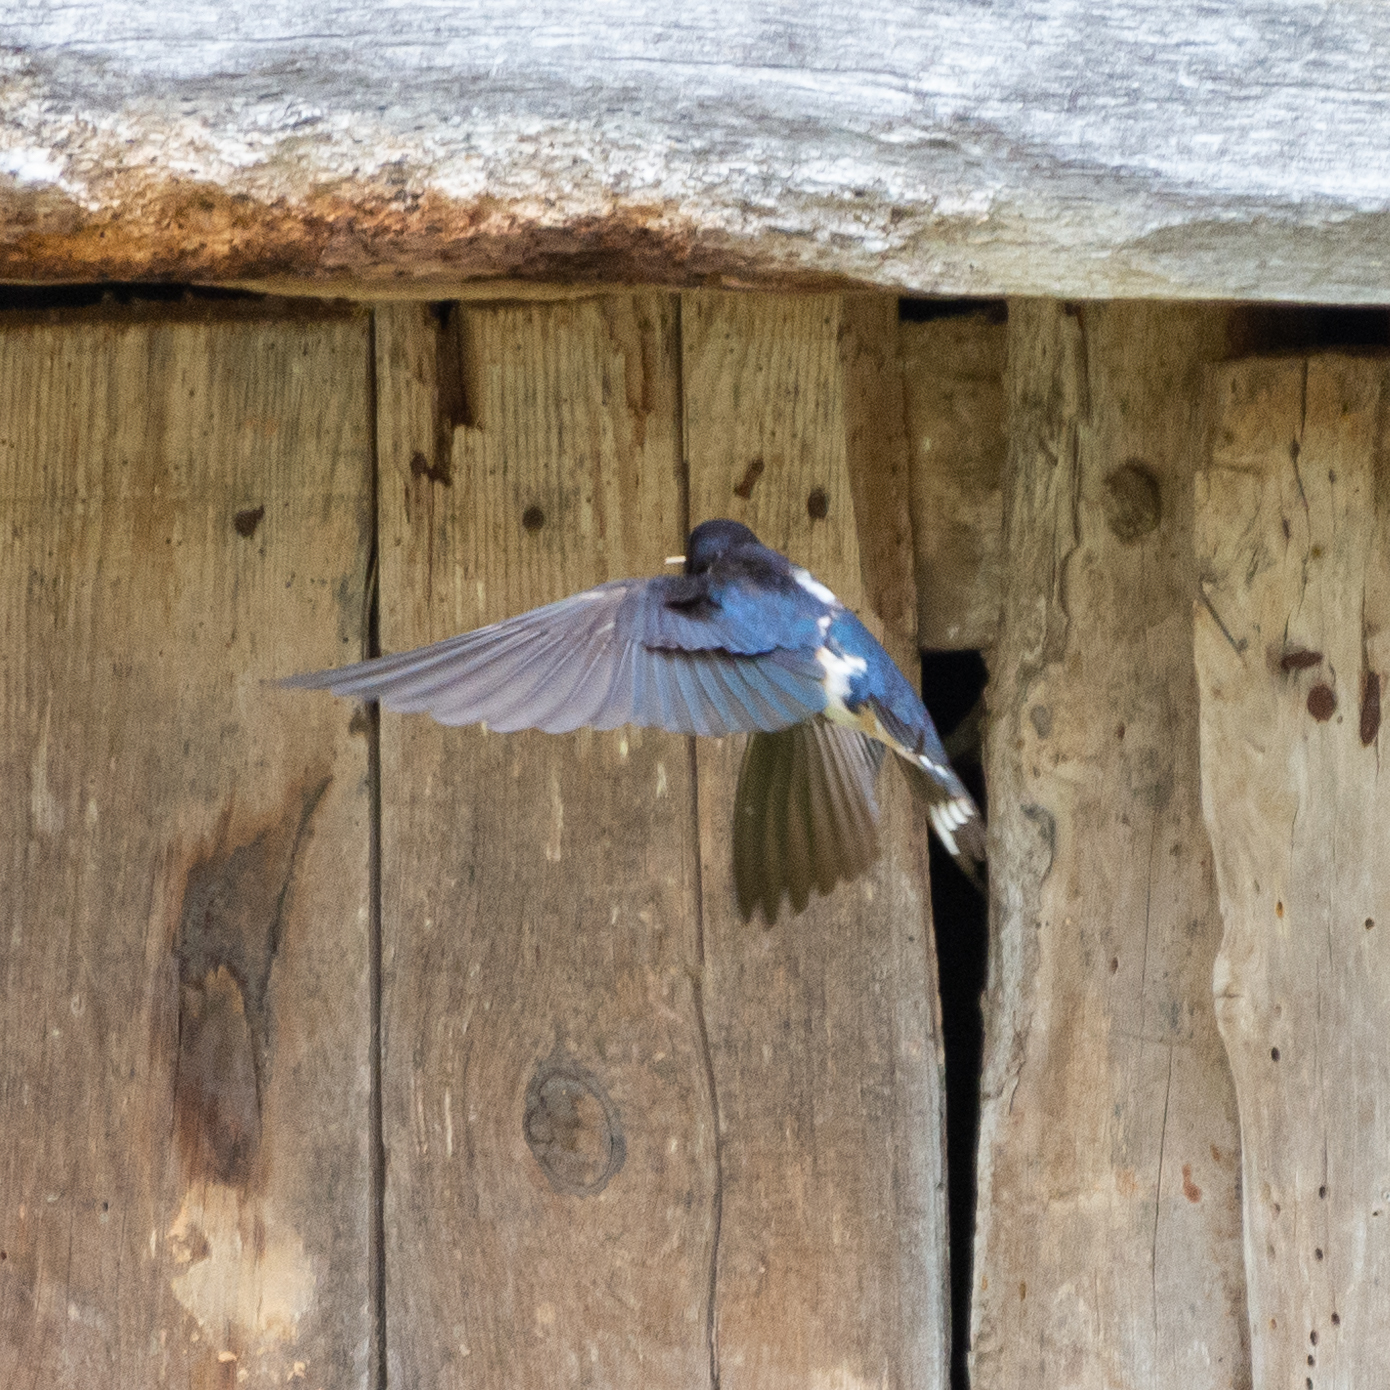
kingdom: Animalia
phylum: Chordata
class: Aves
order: Passeriformes
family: Hirundinidae
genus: Hirundo
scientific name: Hirundo rustica
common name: Barn swallow
